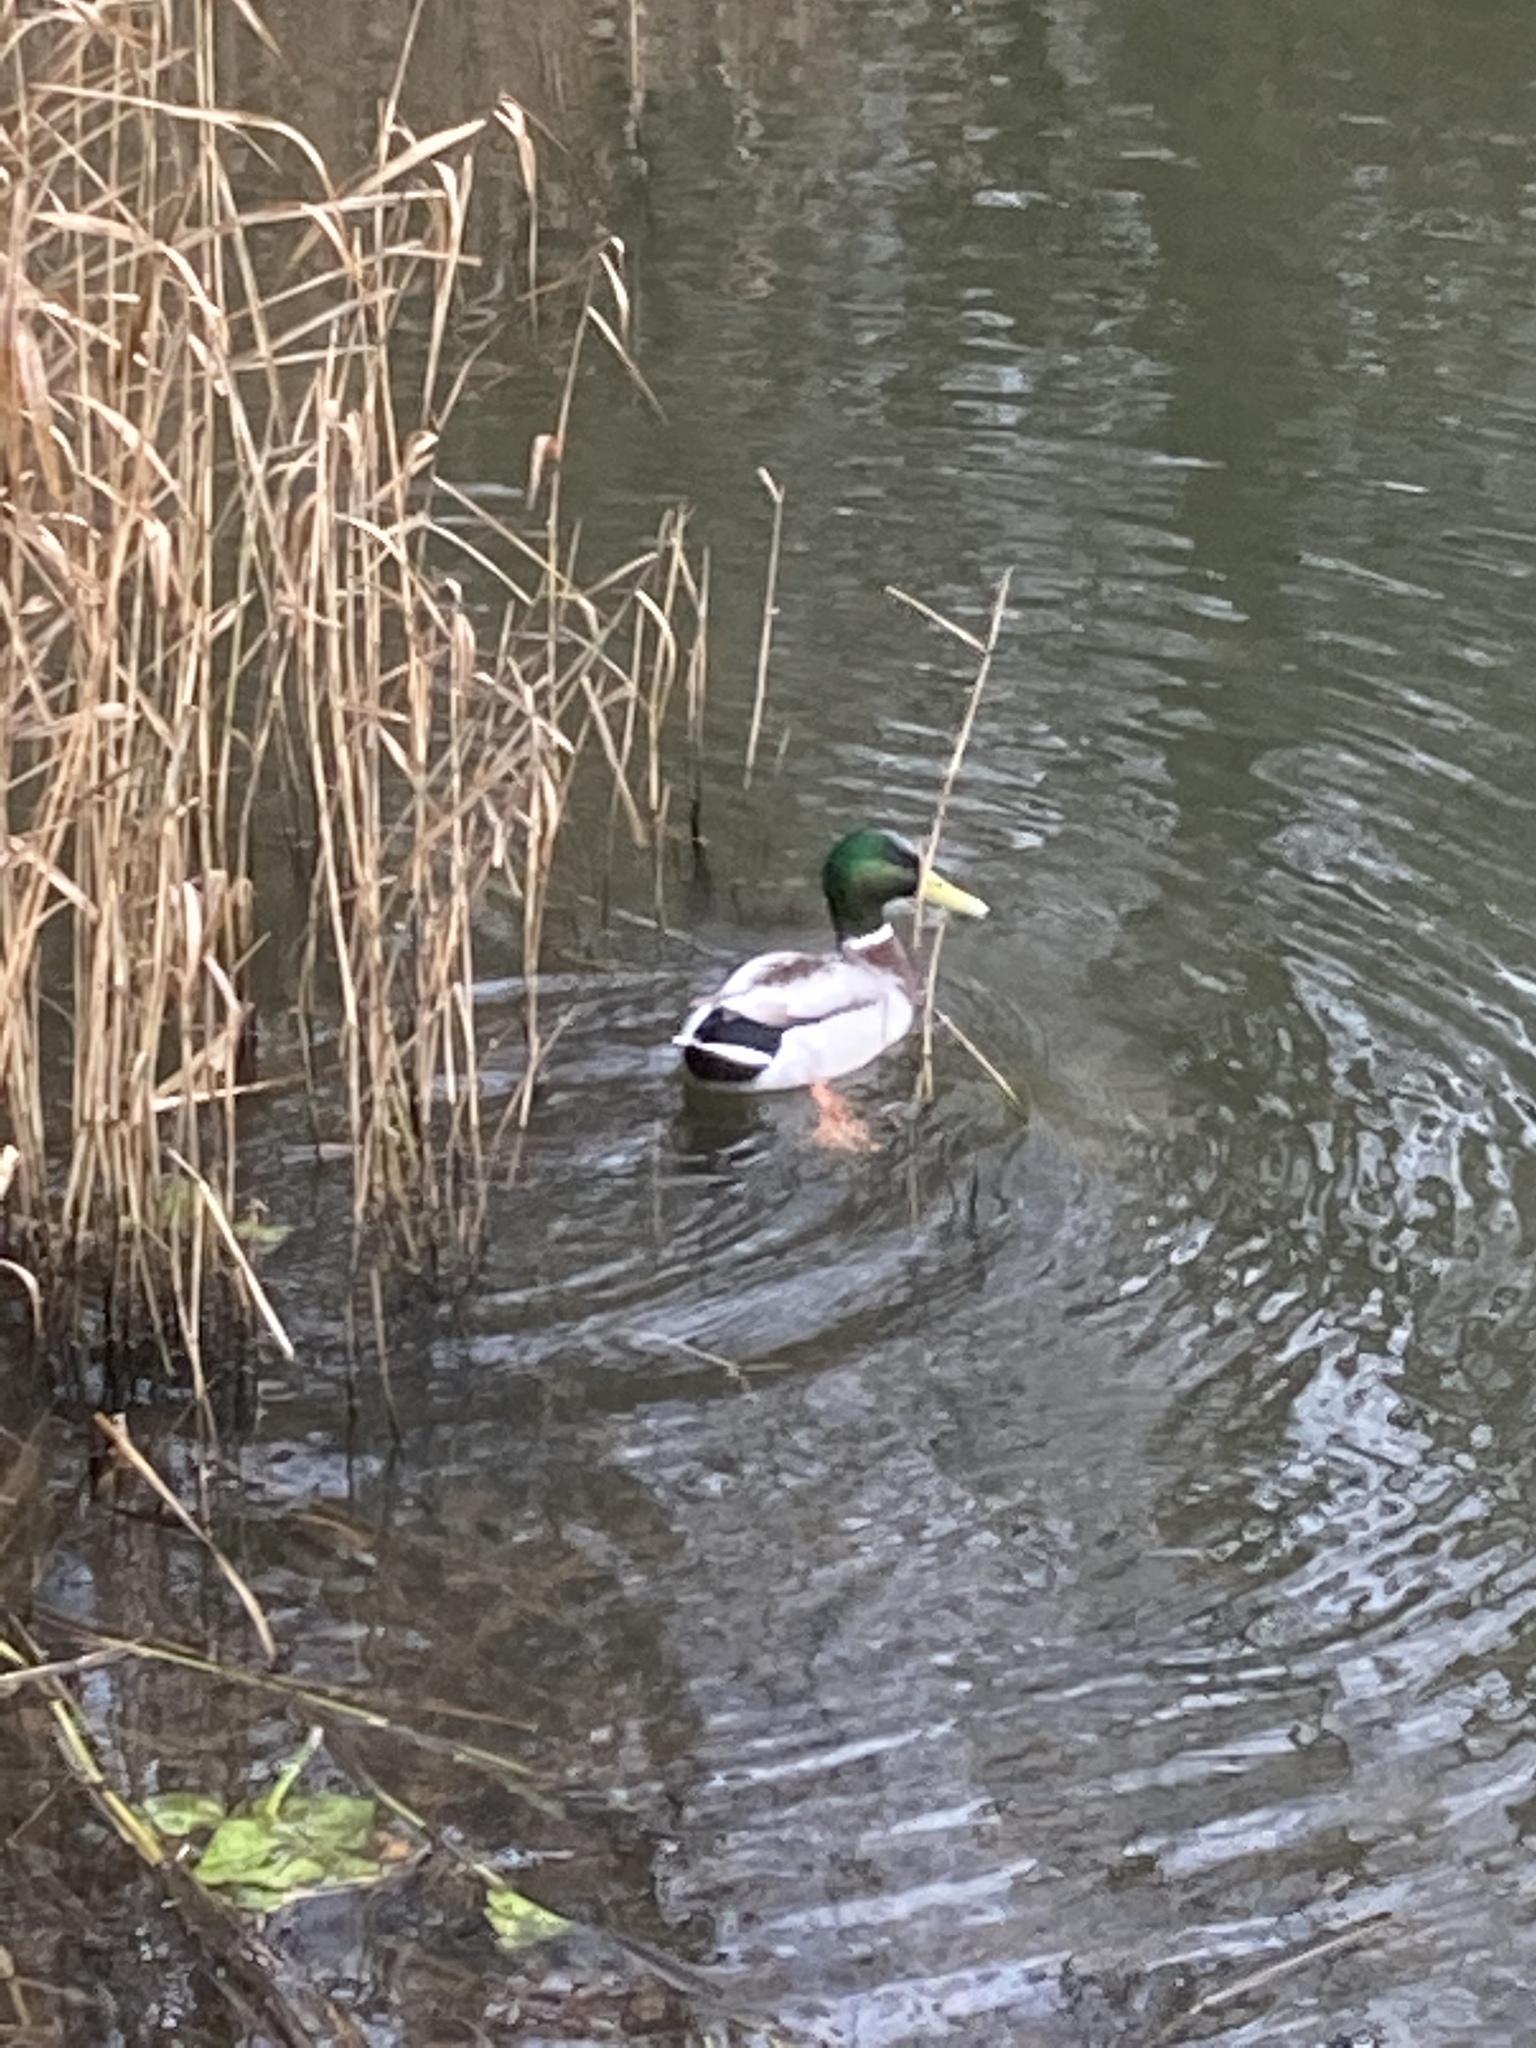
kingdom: Animalia
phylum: Chordata
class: Aves
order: Anseriformes
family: Anatidae
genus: Anas
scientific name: Anas platyrhynchos
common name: Mallard
